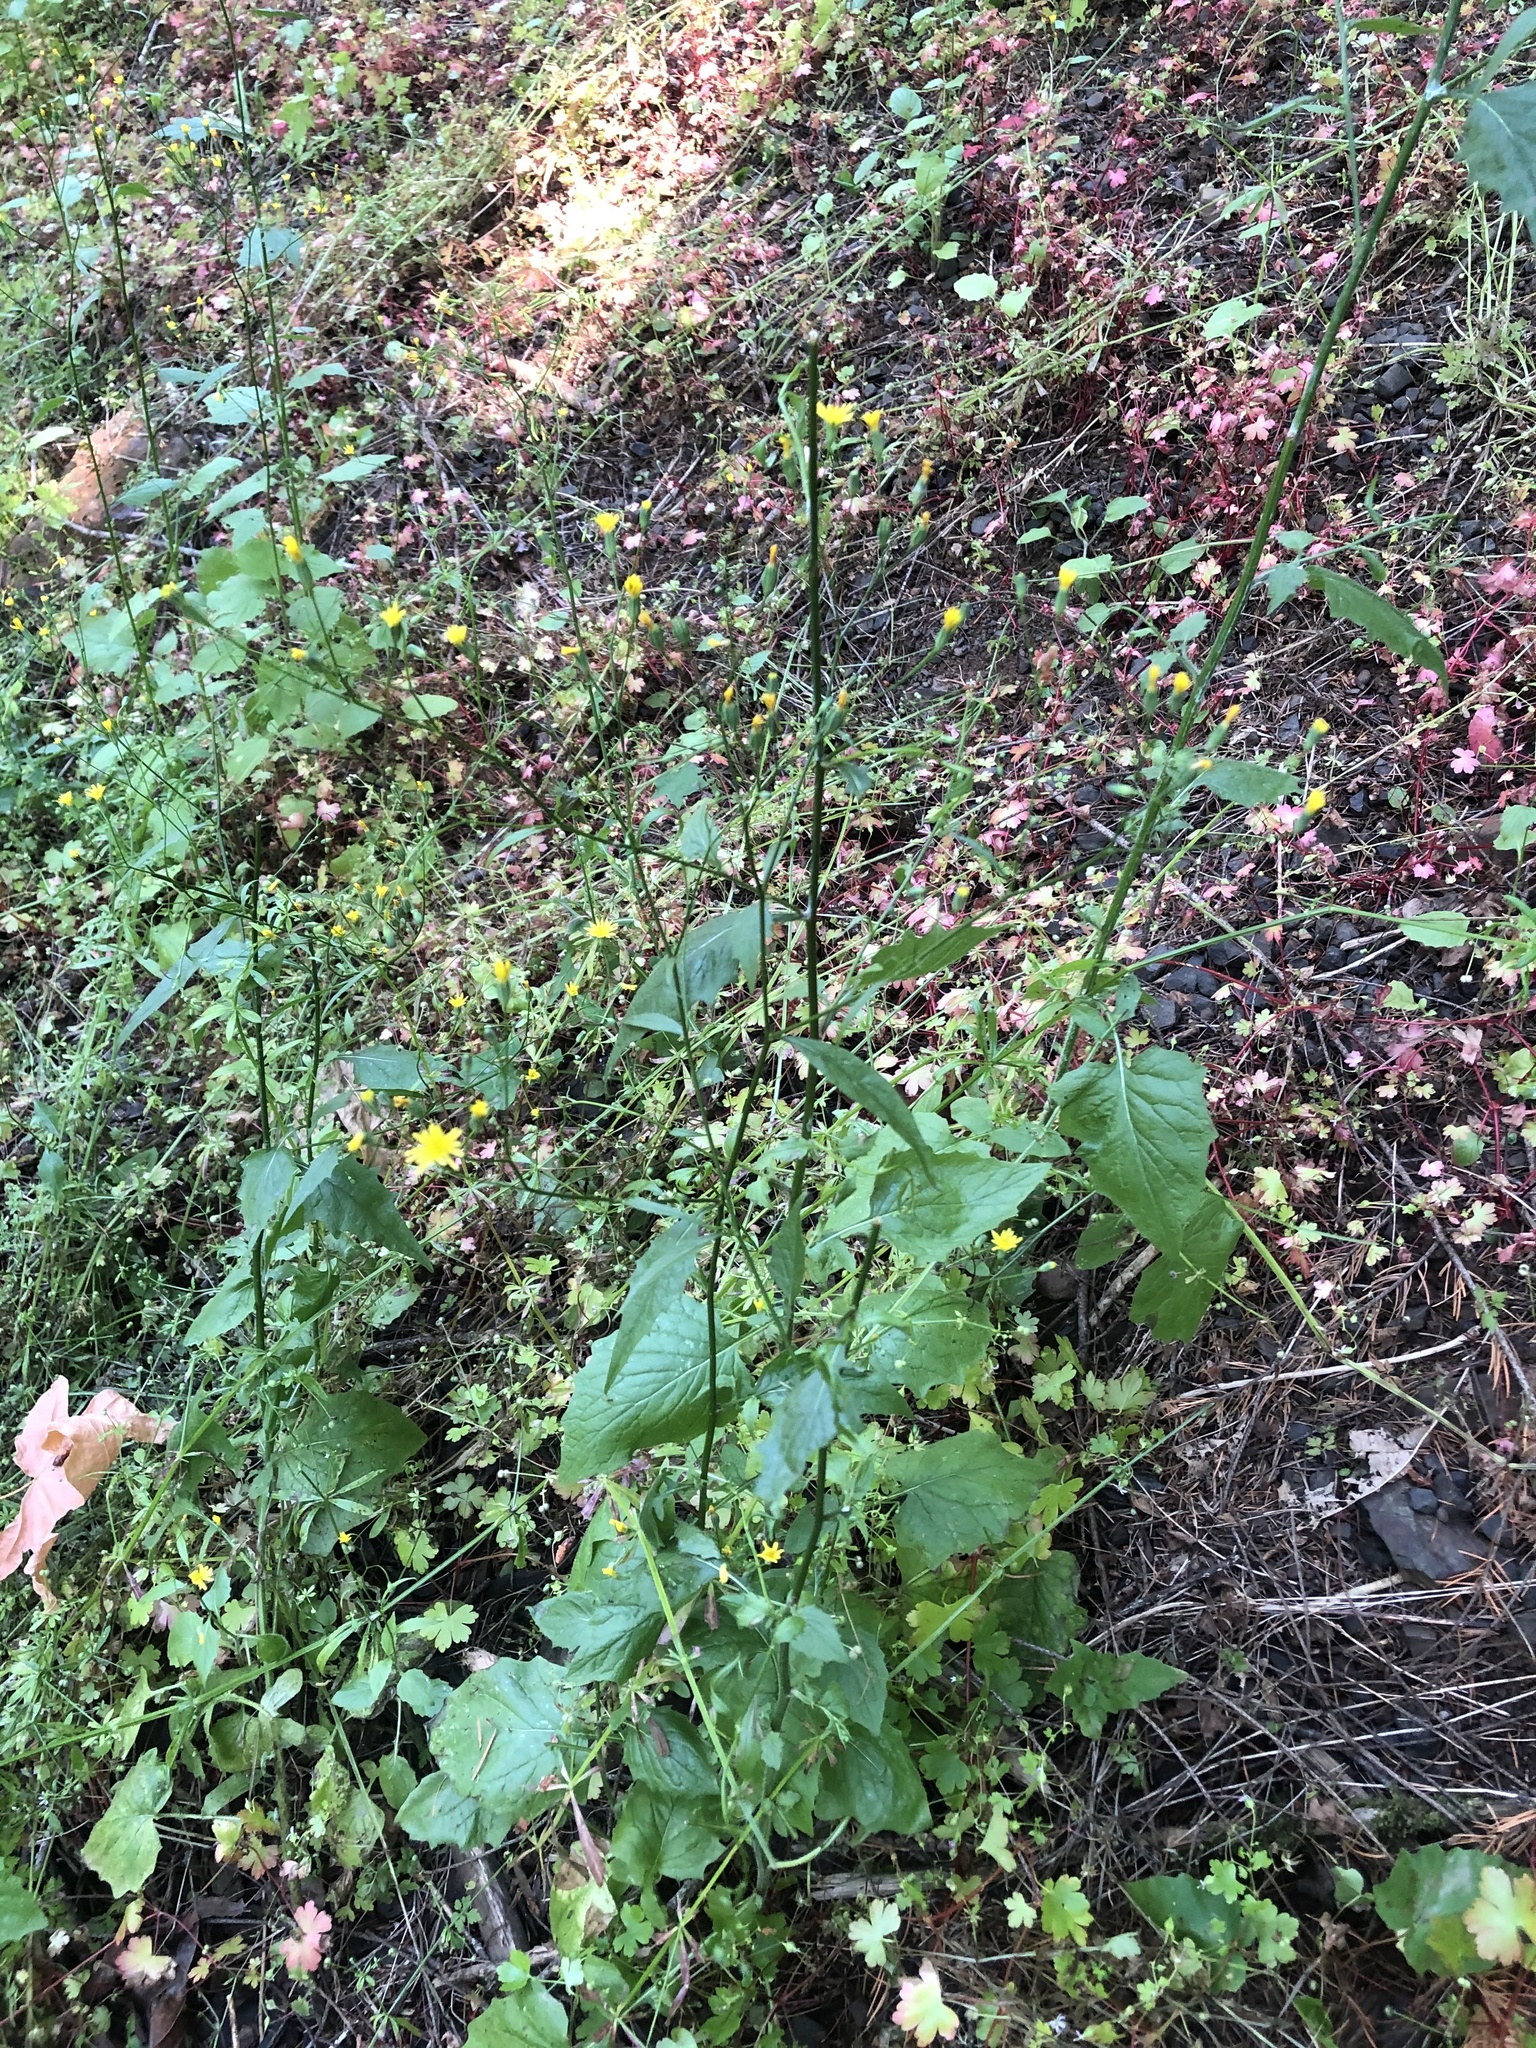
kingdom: Plantae
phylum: Tracheophyta
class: Magnoliopsida
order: Asterales
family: Asteraceae
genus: Lapsana
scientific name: Lapsana communis
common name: Nipplewort
